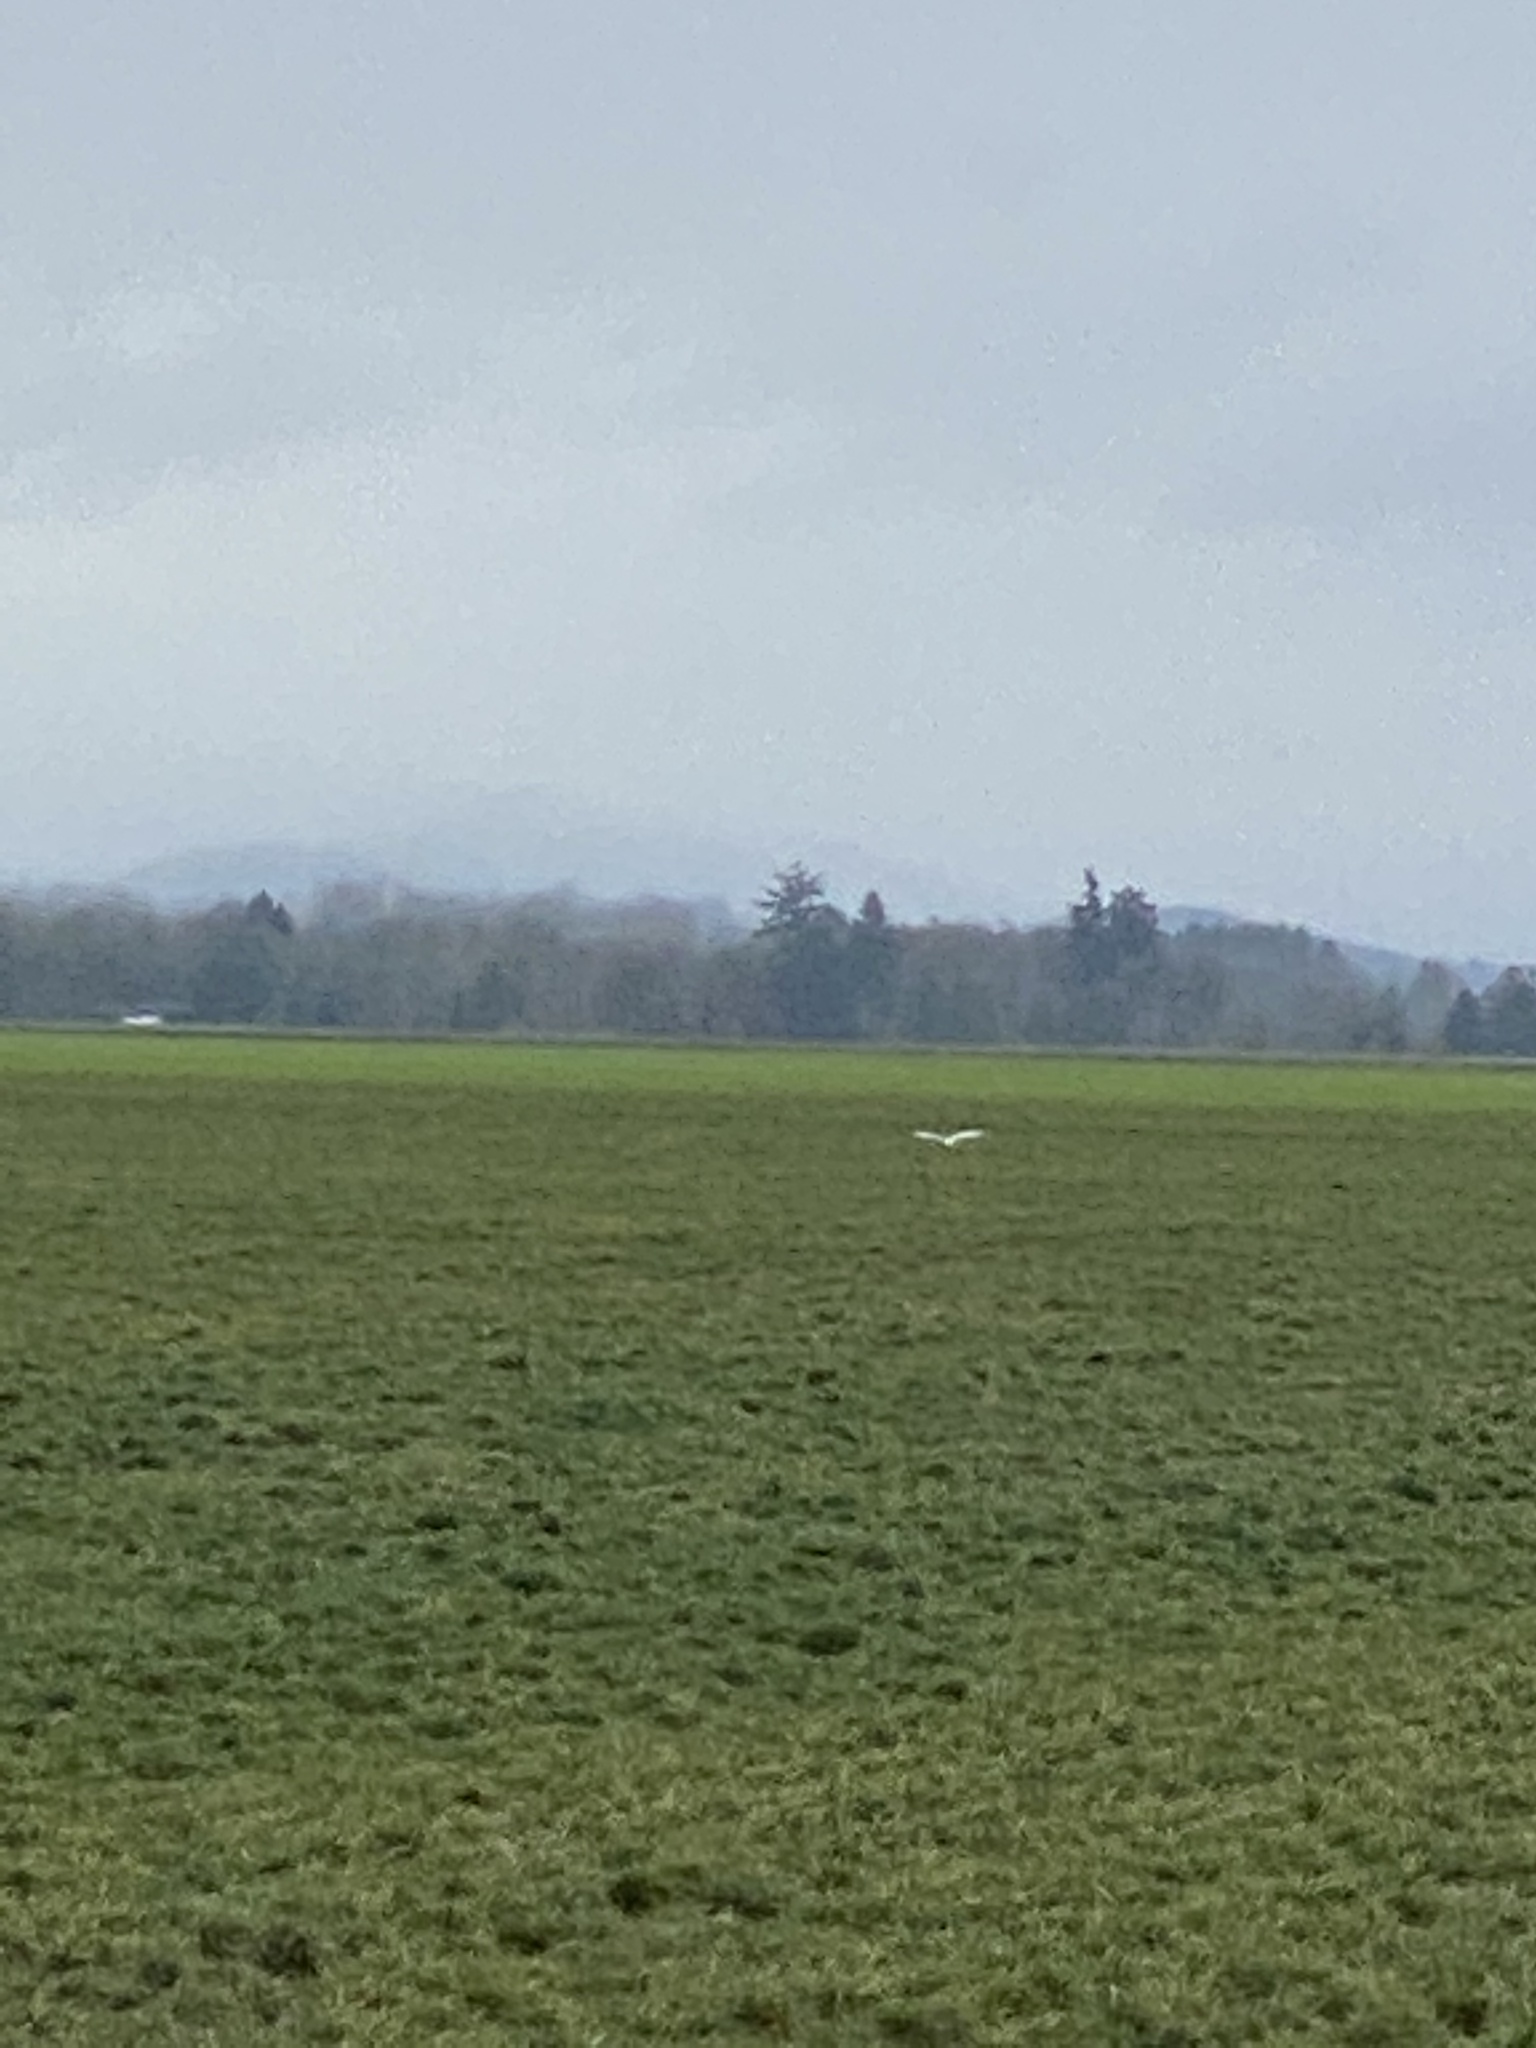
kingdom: Animalia
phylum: Chordata
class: Aves
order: Accipitriformes
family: Accipitridae
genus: Circus
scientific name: Circus cyaneus
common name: Hen harrier
